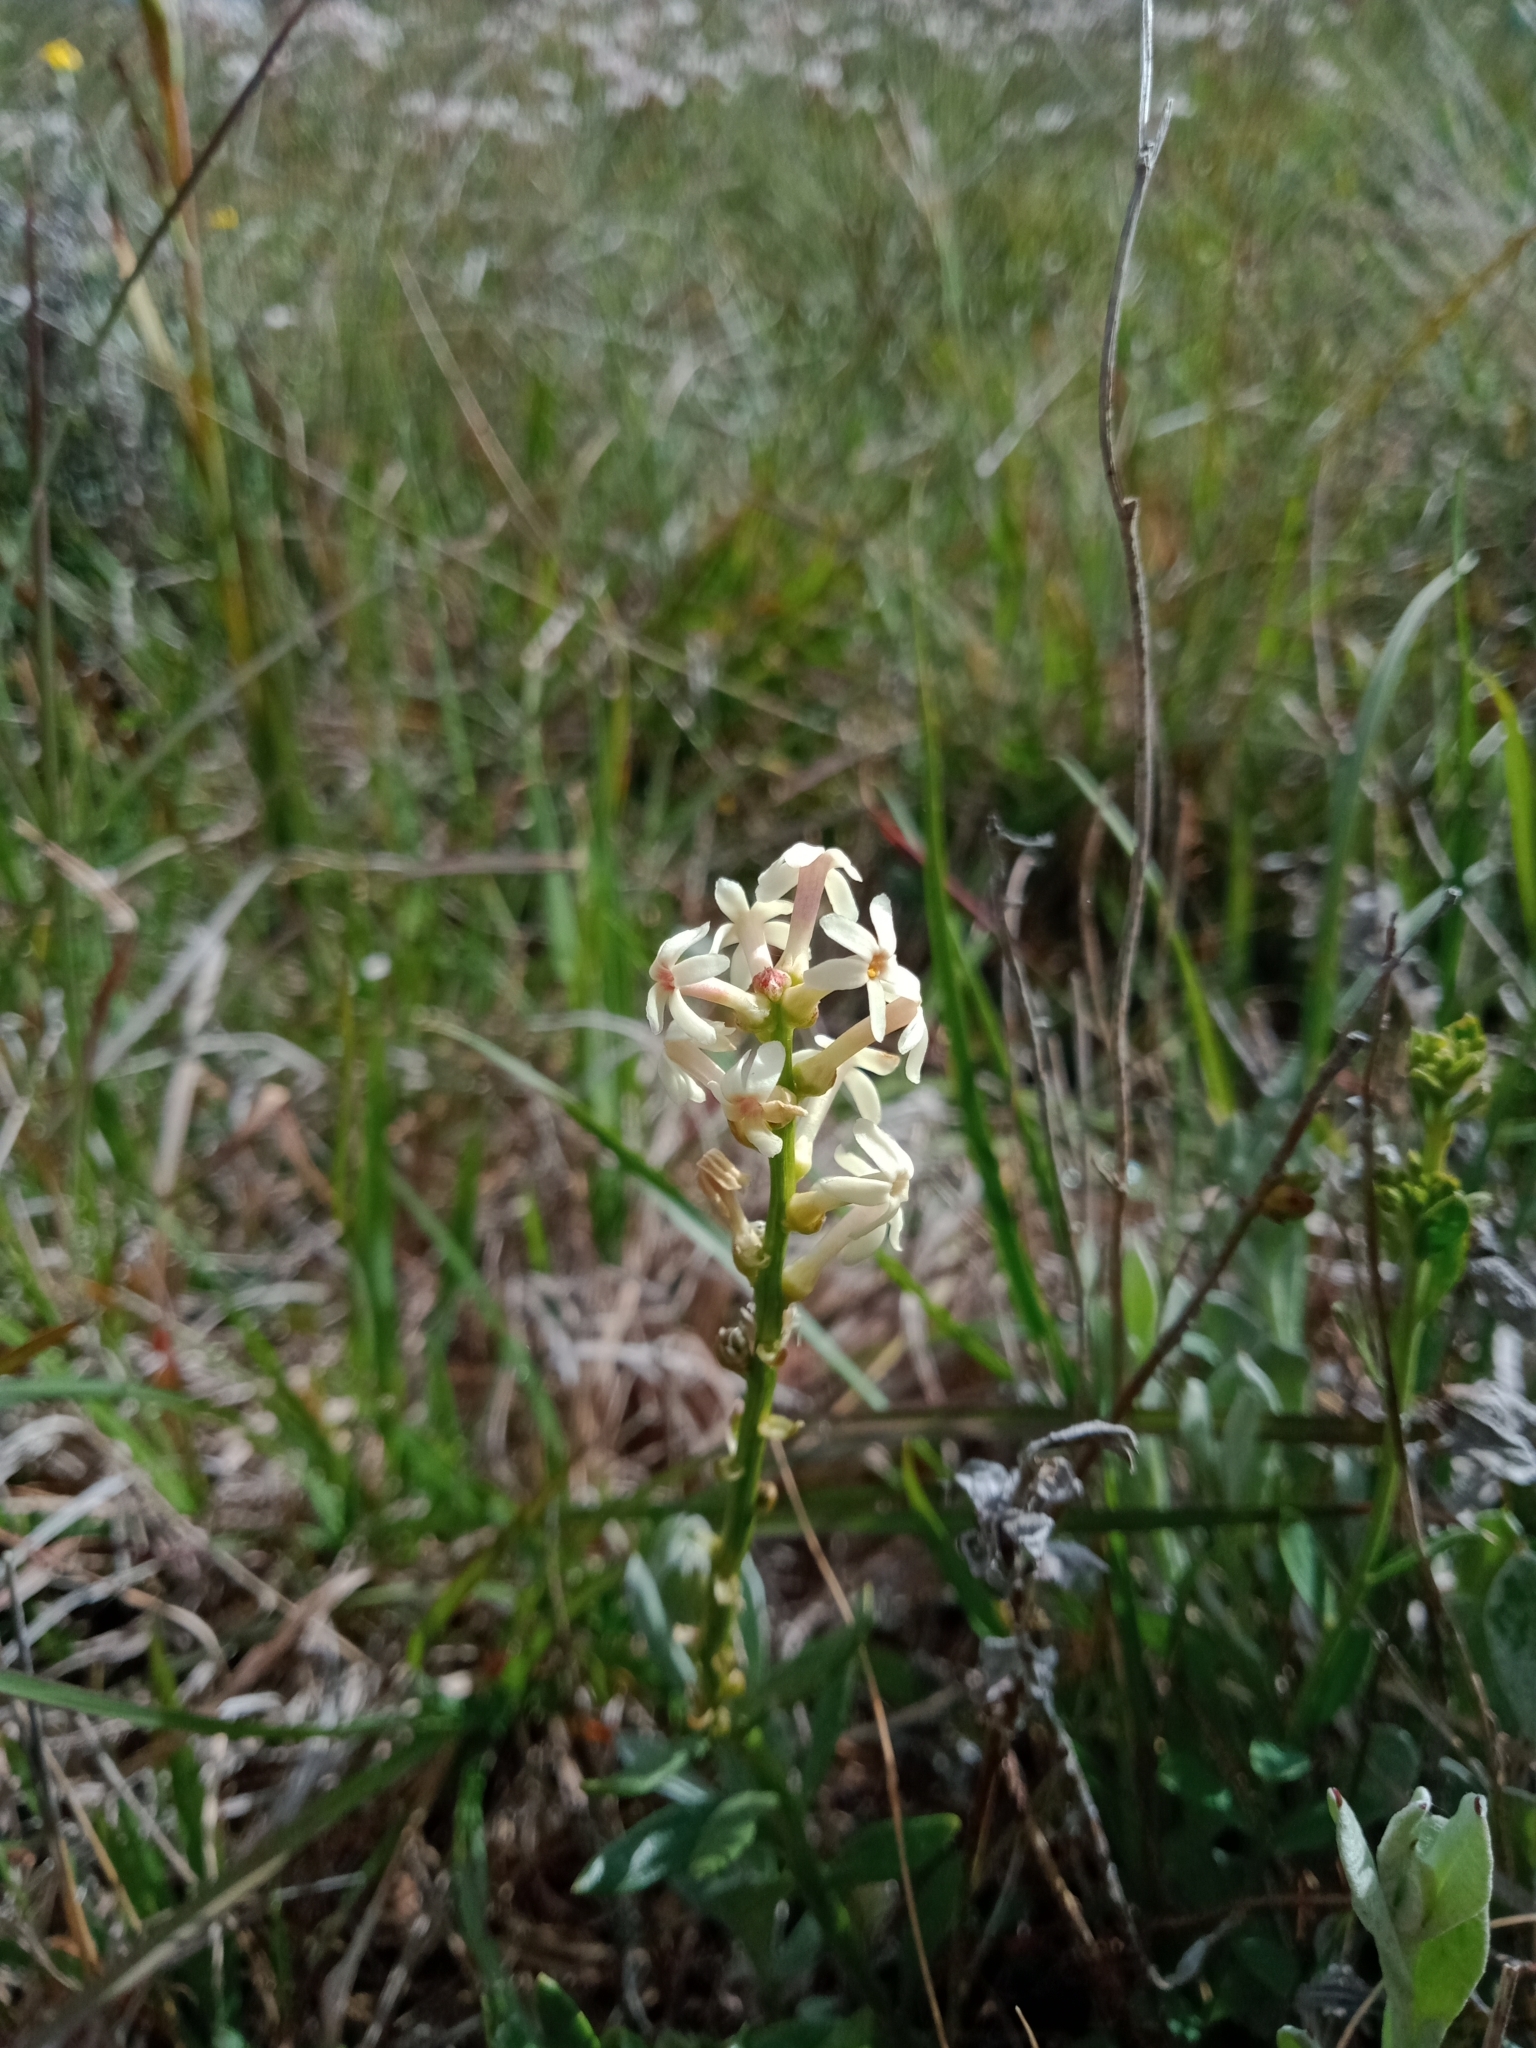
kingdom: Plantae
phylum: Tracheophyta
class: Magnoliopsida
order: Celastrales
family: Celastraceae
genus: Stackhousia
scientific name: Stackhousia monogyna
